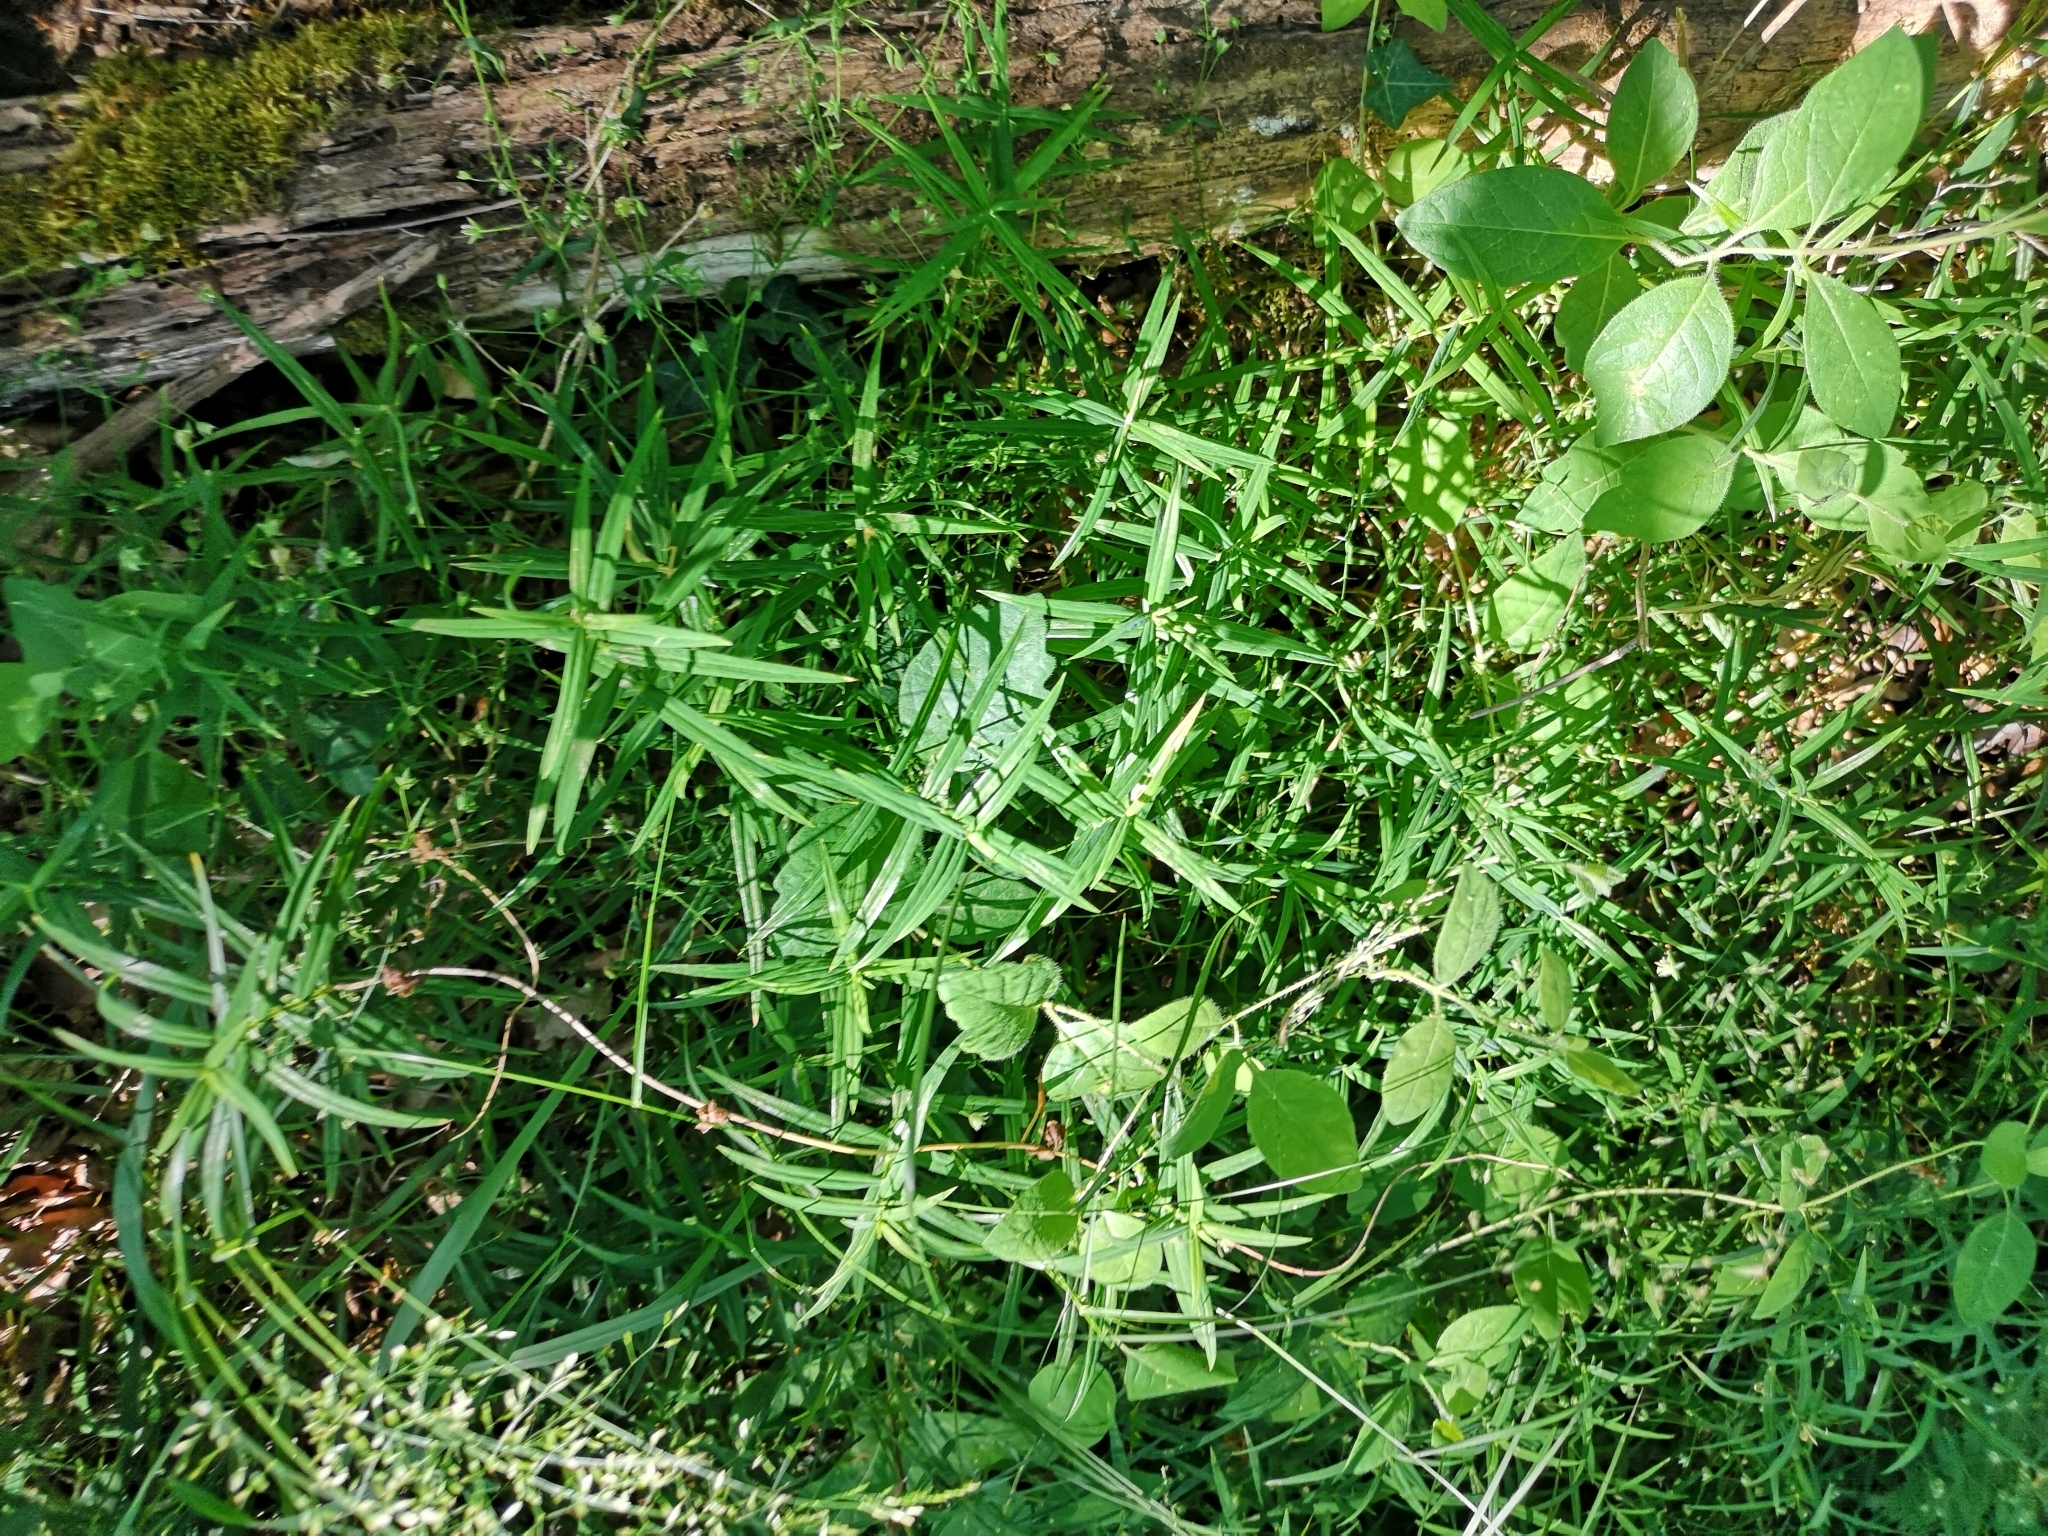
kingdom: Plantae
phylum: Tracheophyta
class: Magnoliopsida
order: Caryophyllales
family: Caryophyllaceae
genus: Rabelera
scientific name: Rabelera holostea
